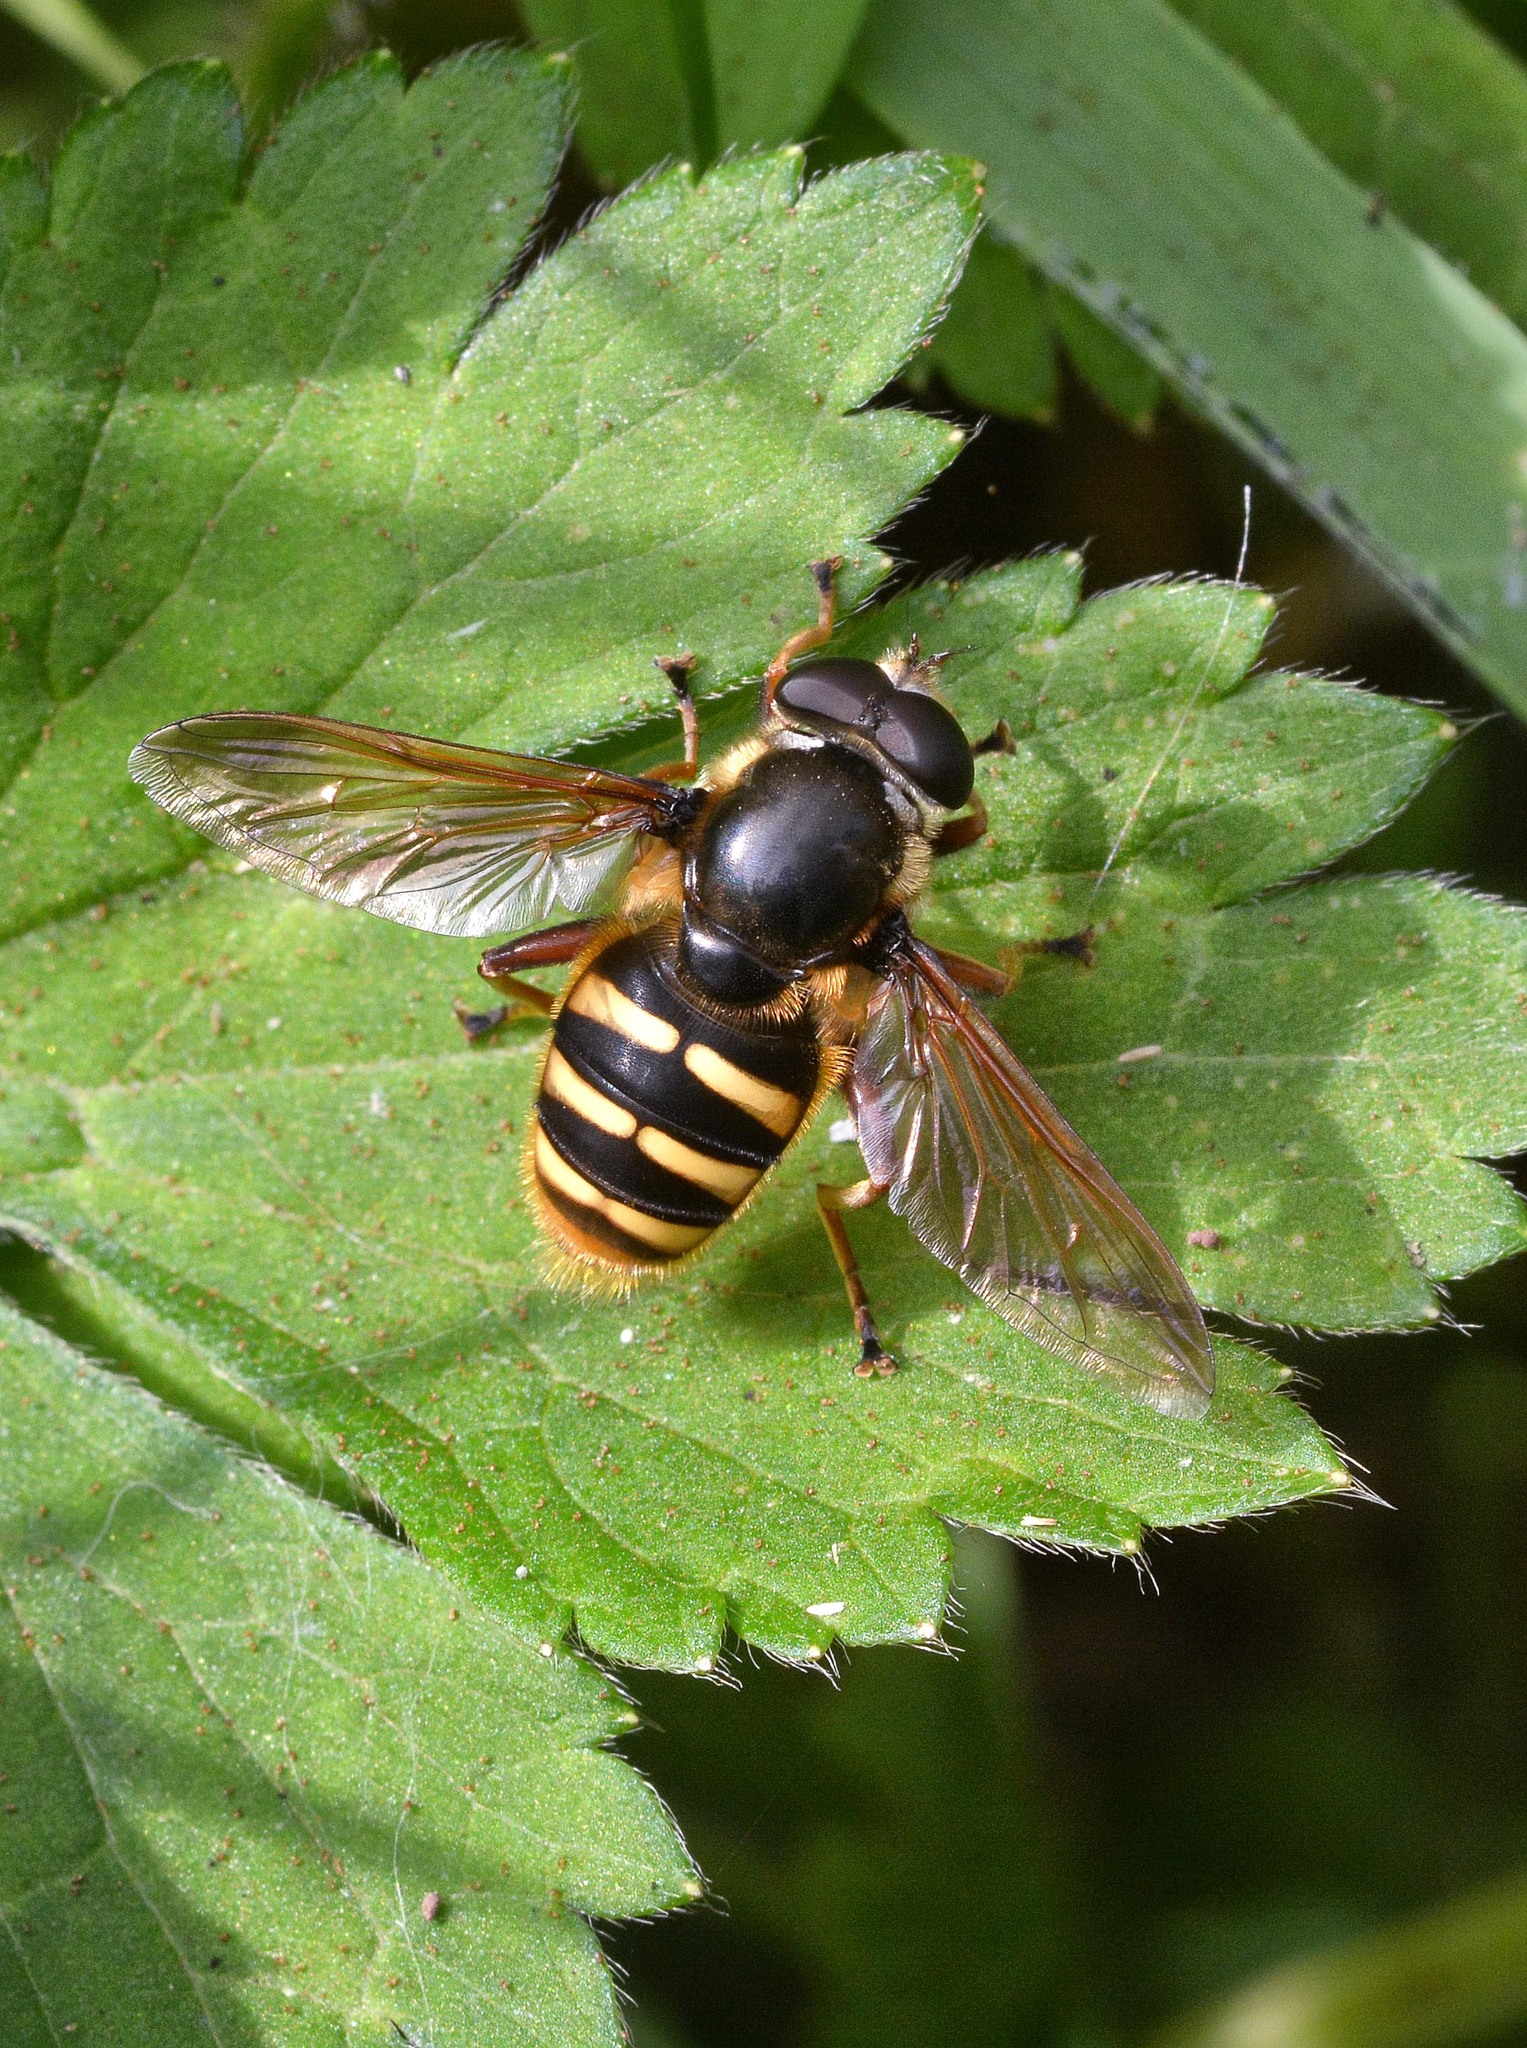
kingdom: Animalia
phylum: Arthropoda
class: Insecta
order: Diptera
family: Syrphidae
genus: Sericomyia
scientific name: Sericomyia silentis
